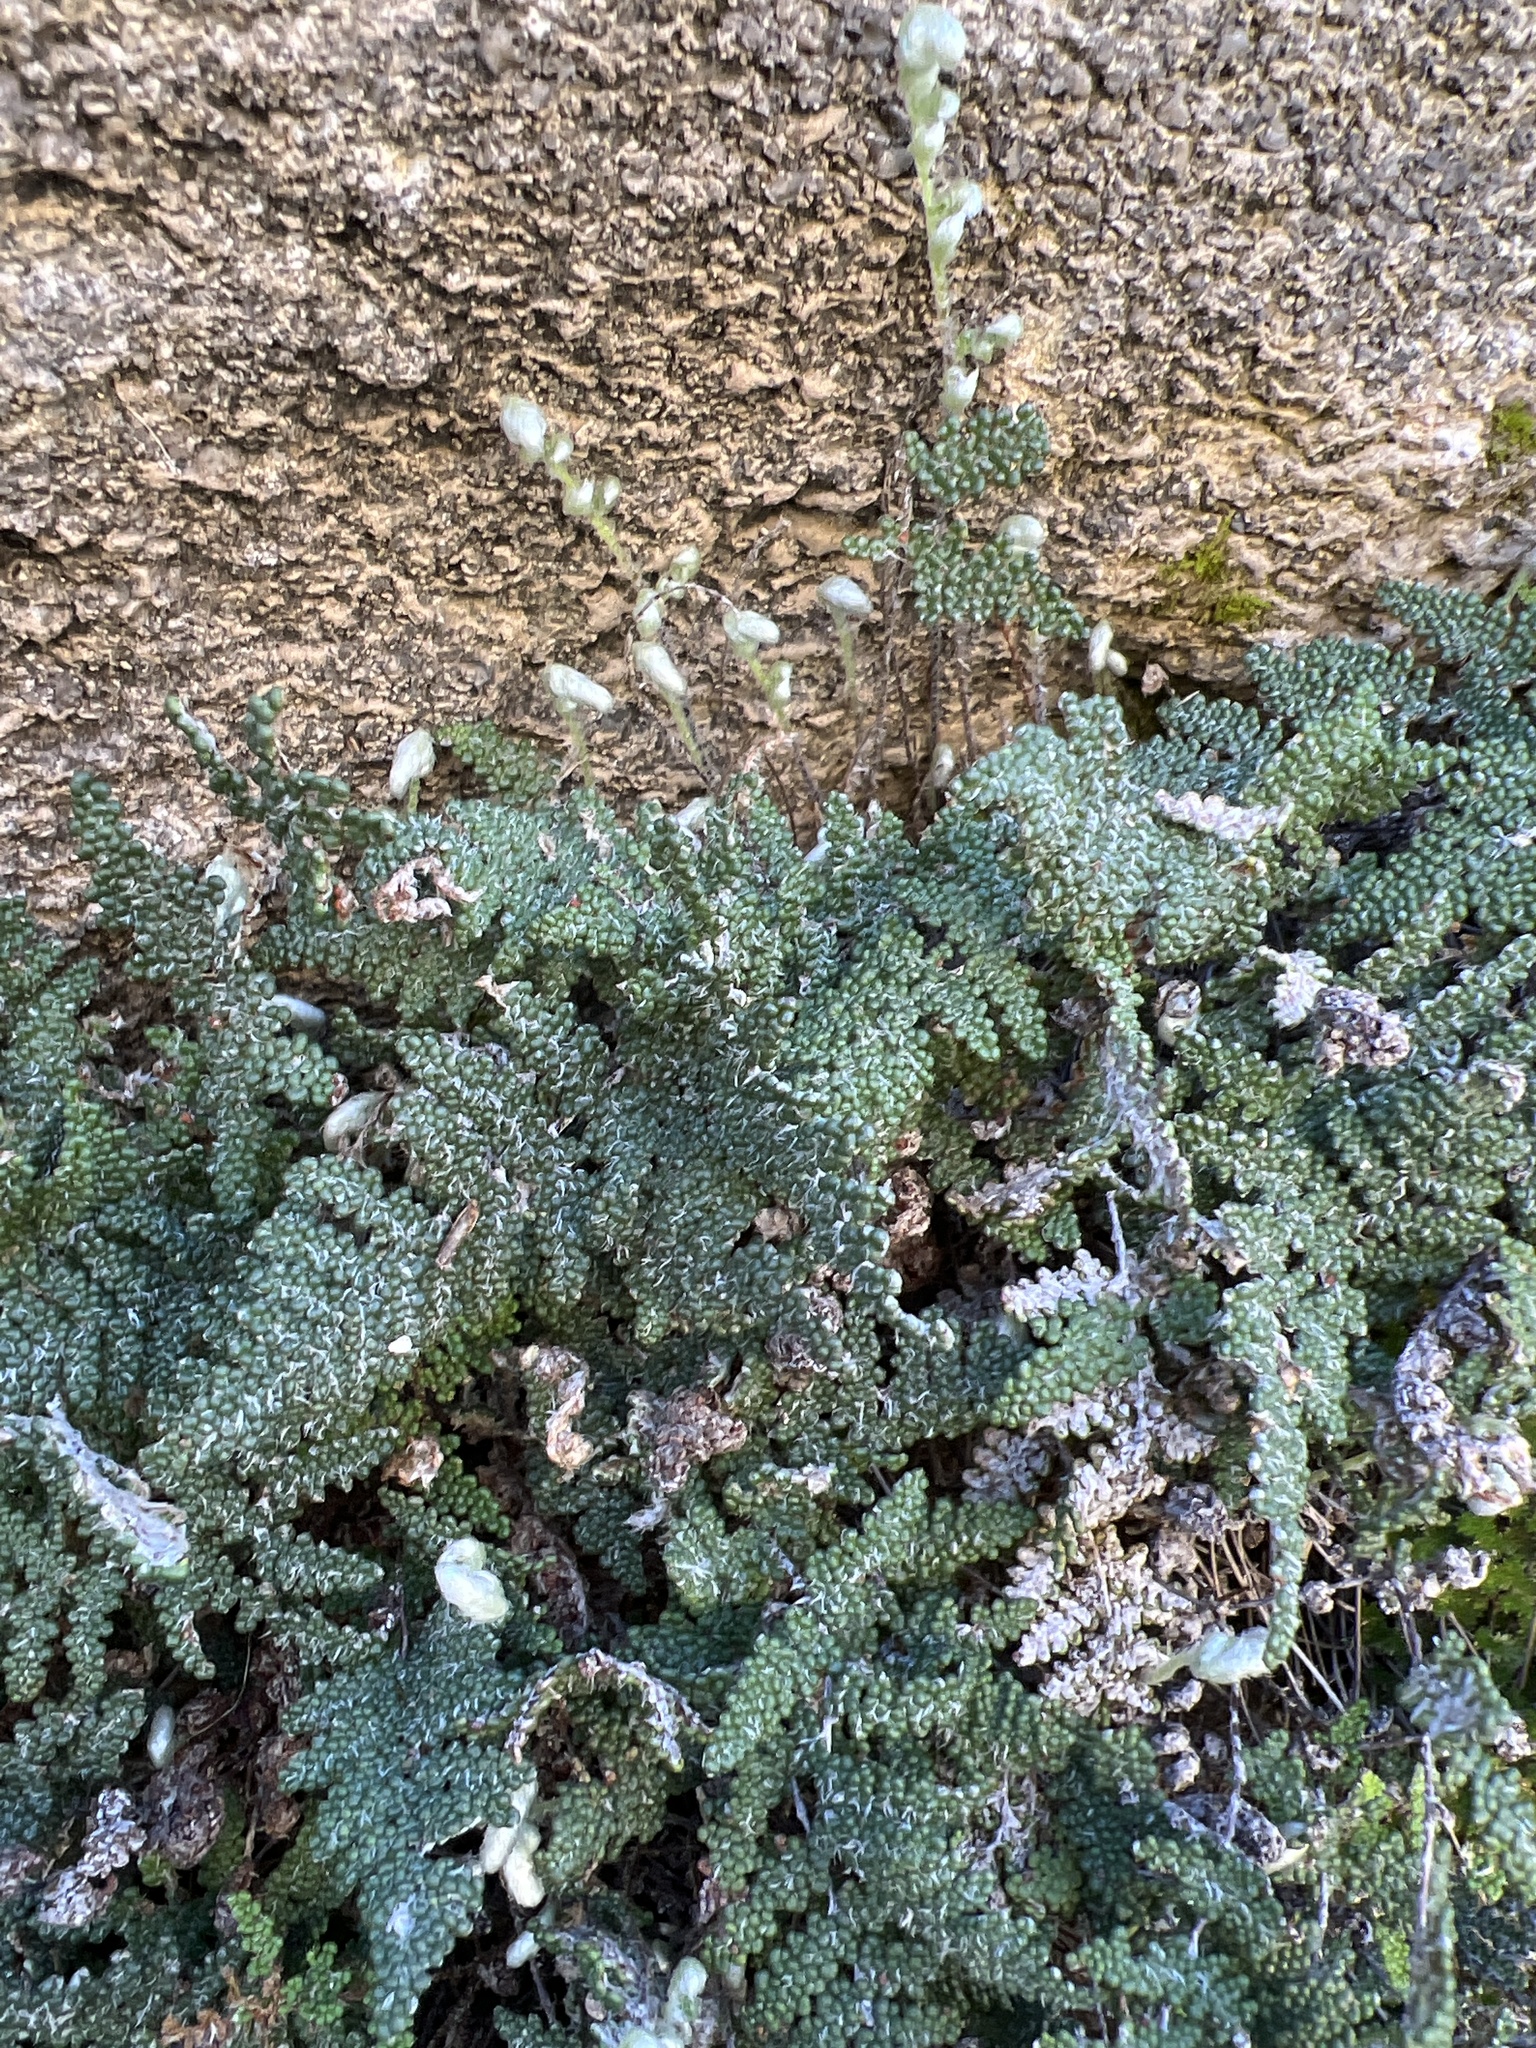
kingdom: Plantae
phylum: Tracheophyta
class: Polypodiopsida
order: Polypodiales
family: Pteridaceae
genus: Myriopteris
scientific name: Myriopteris covillei
